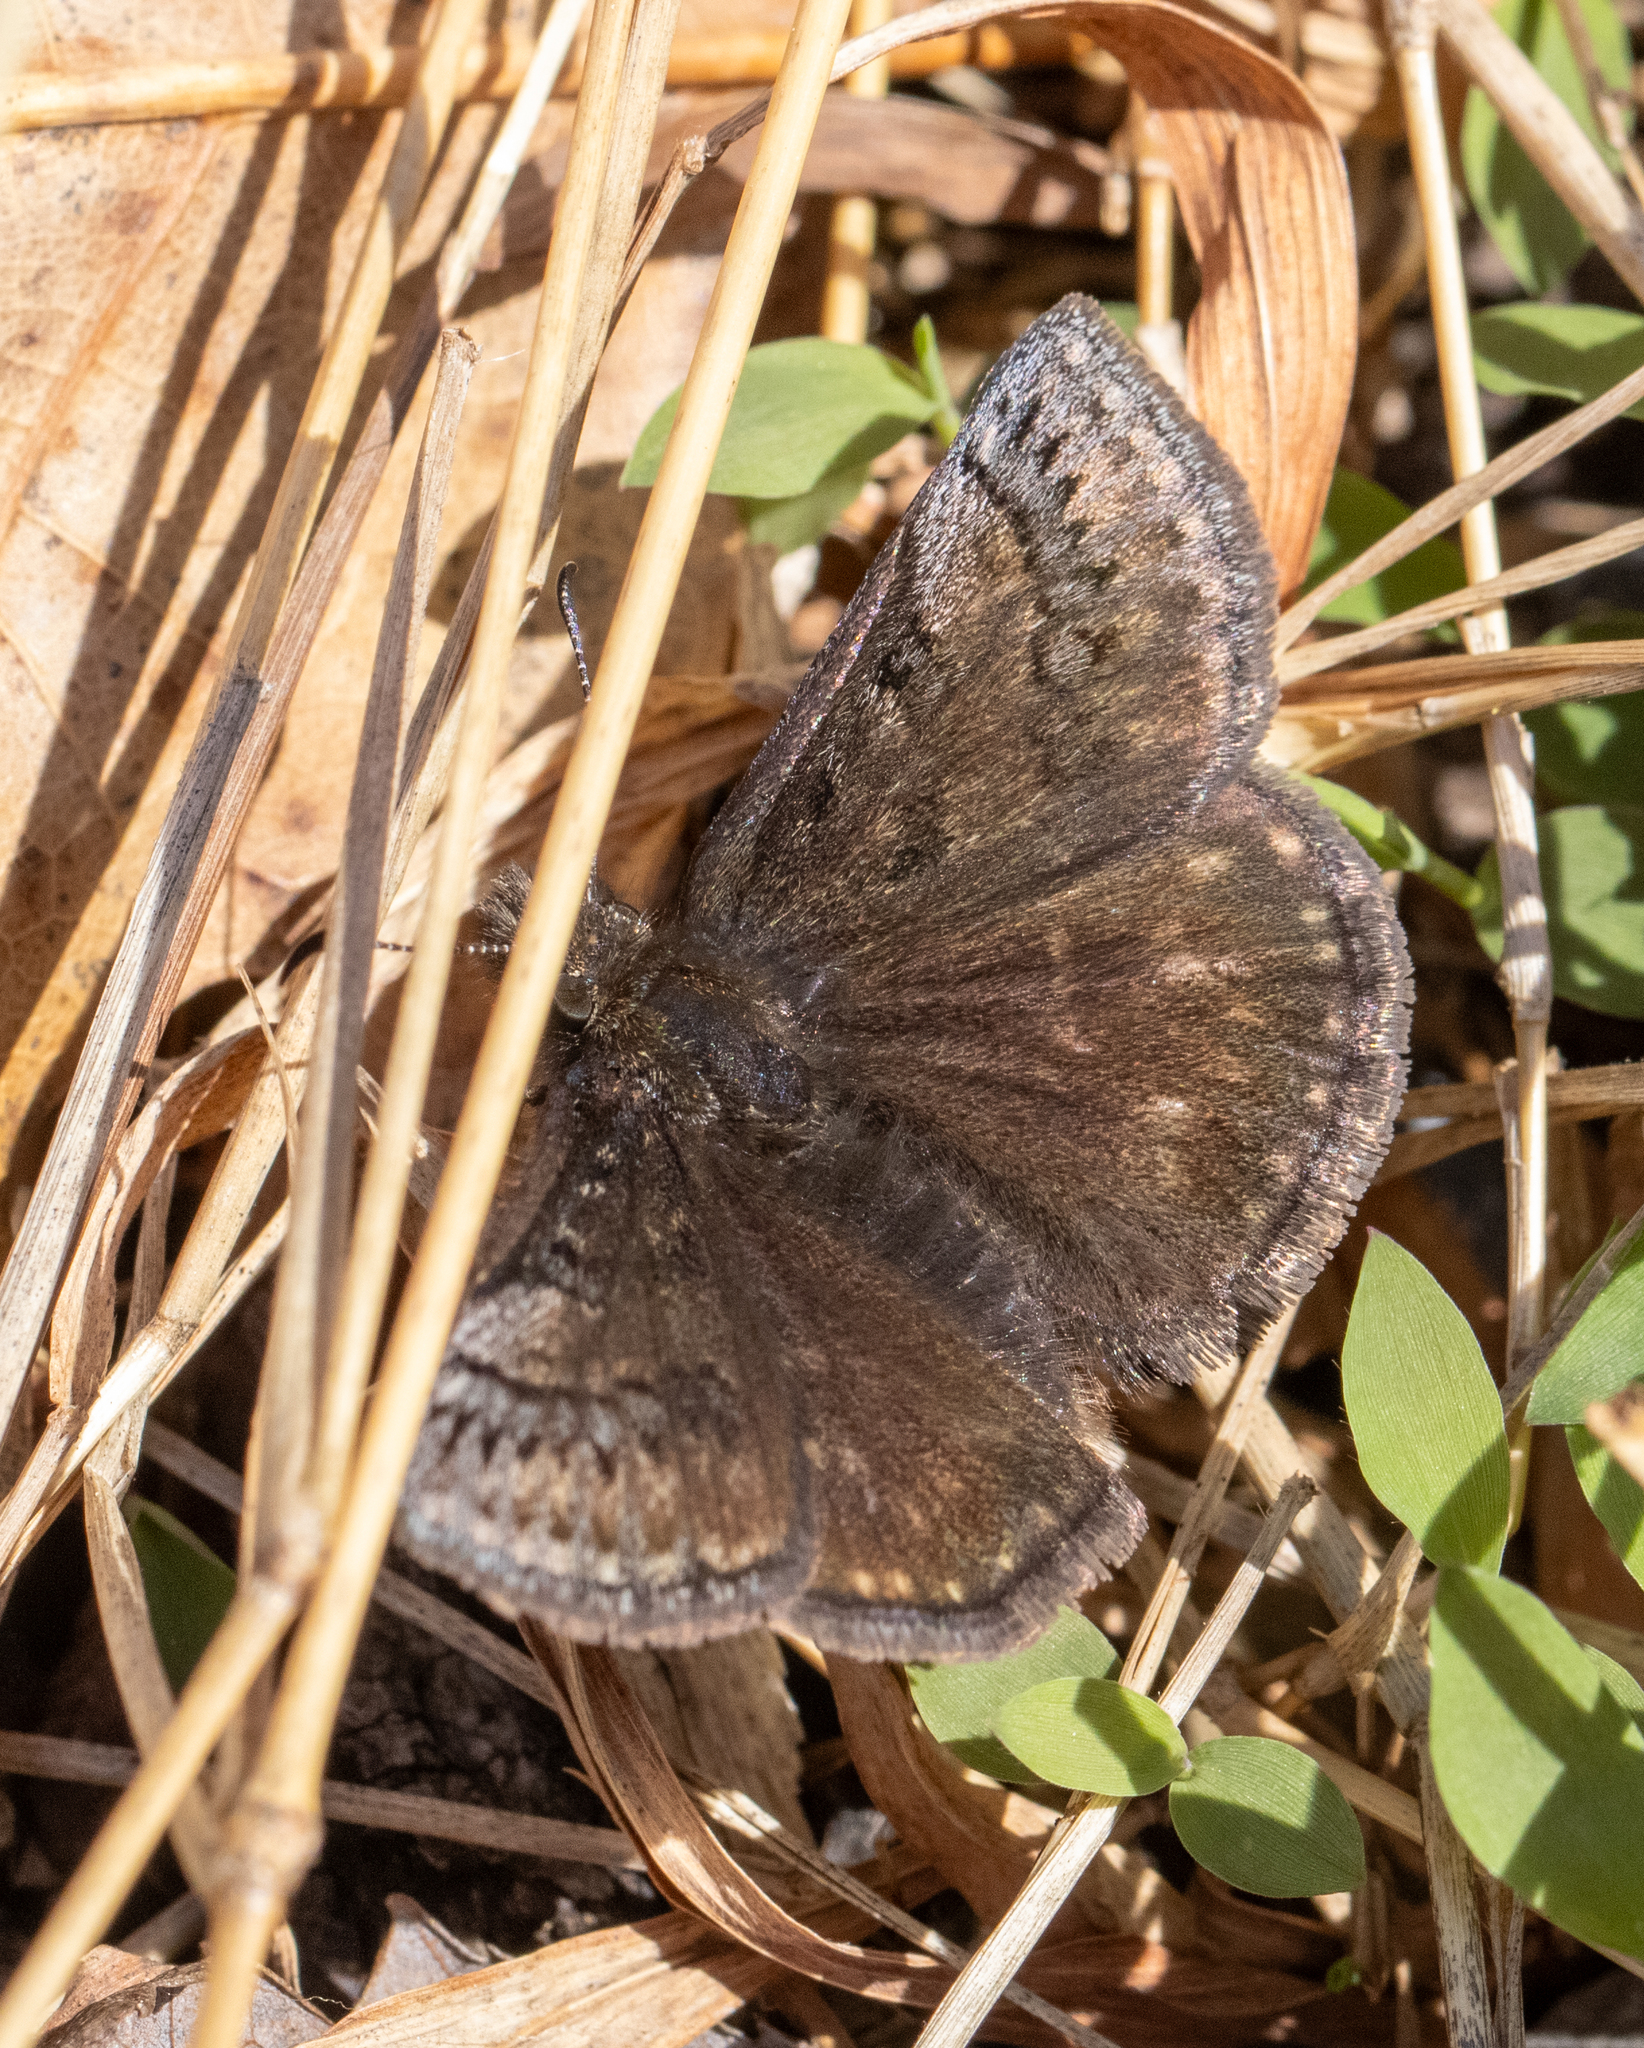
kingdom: Animalia
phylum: Arthropoda
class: Insecta
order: Lepidoptera
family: Hesperiidae
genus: Erynnis
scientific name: Erynnis brizo
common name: Sleepy duskywing
